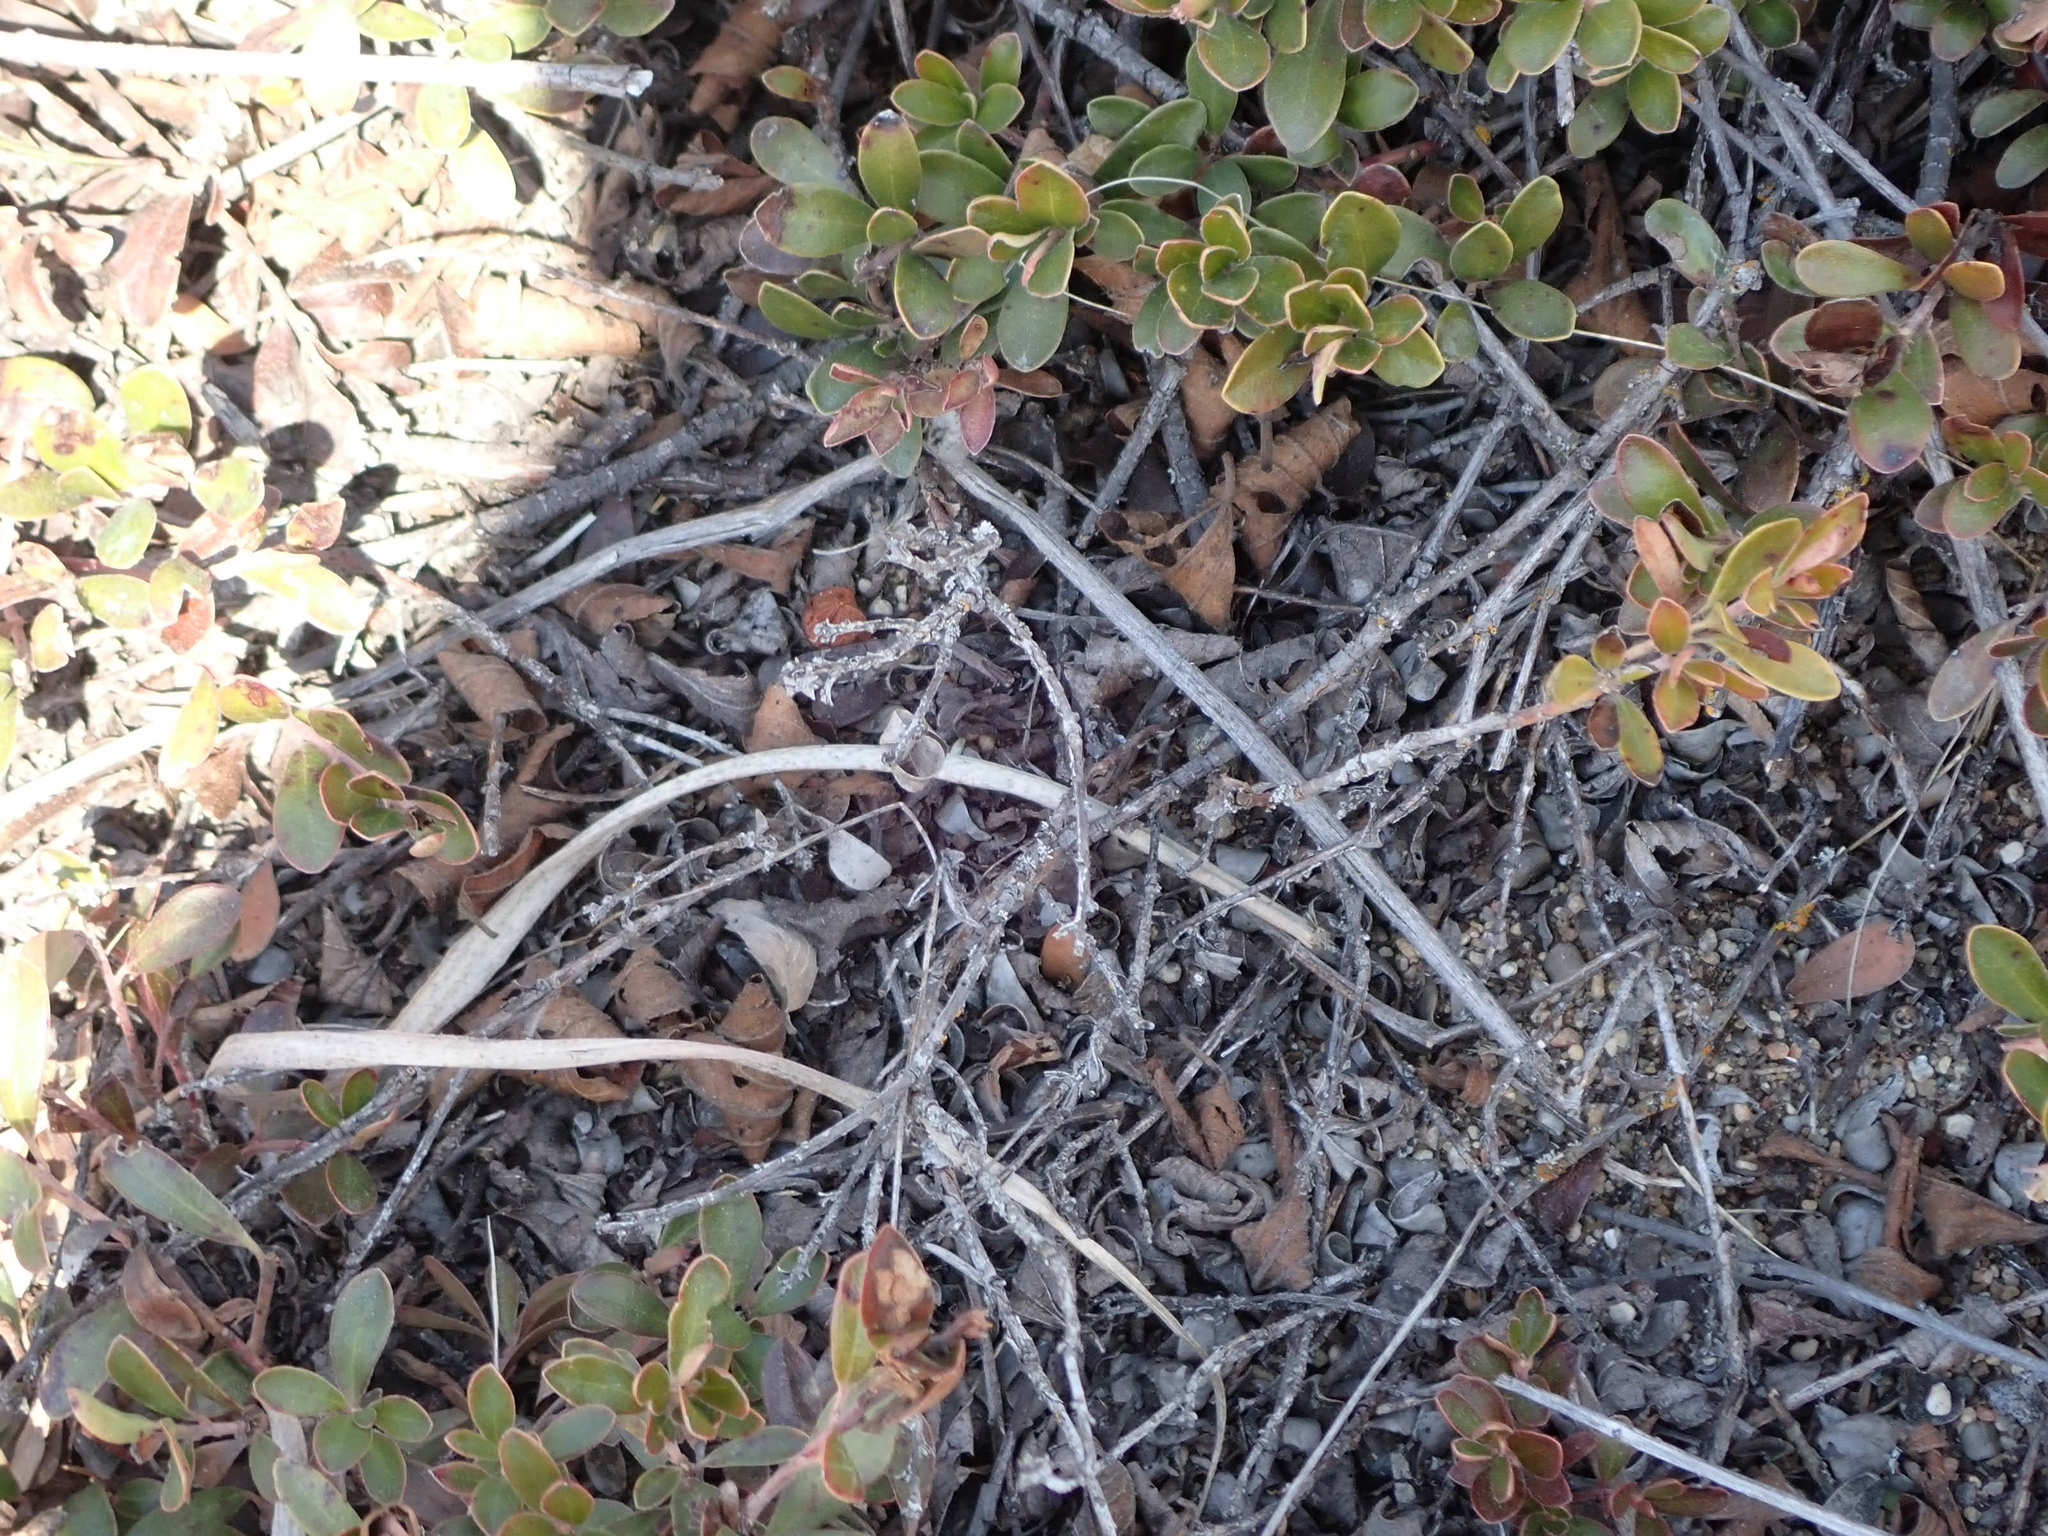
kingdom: Plantae
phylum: Tracheophyta
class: Magnoliopsida
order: Ericales
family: Ericaceae
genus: Arctostaphylos
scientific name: Arctostaphylos uva-ursi
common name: Bearberry
